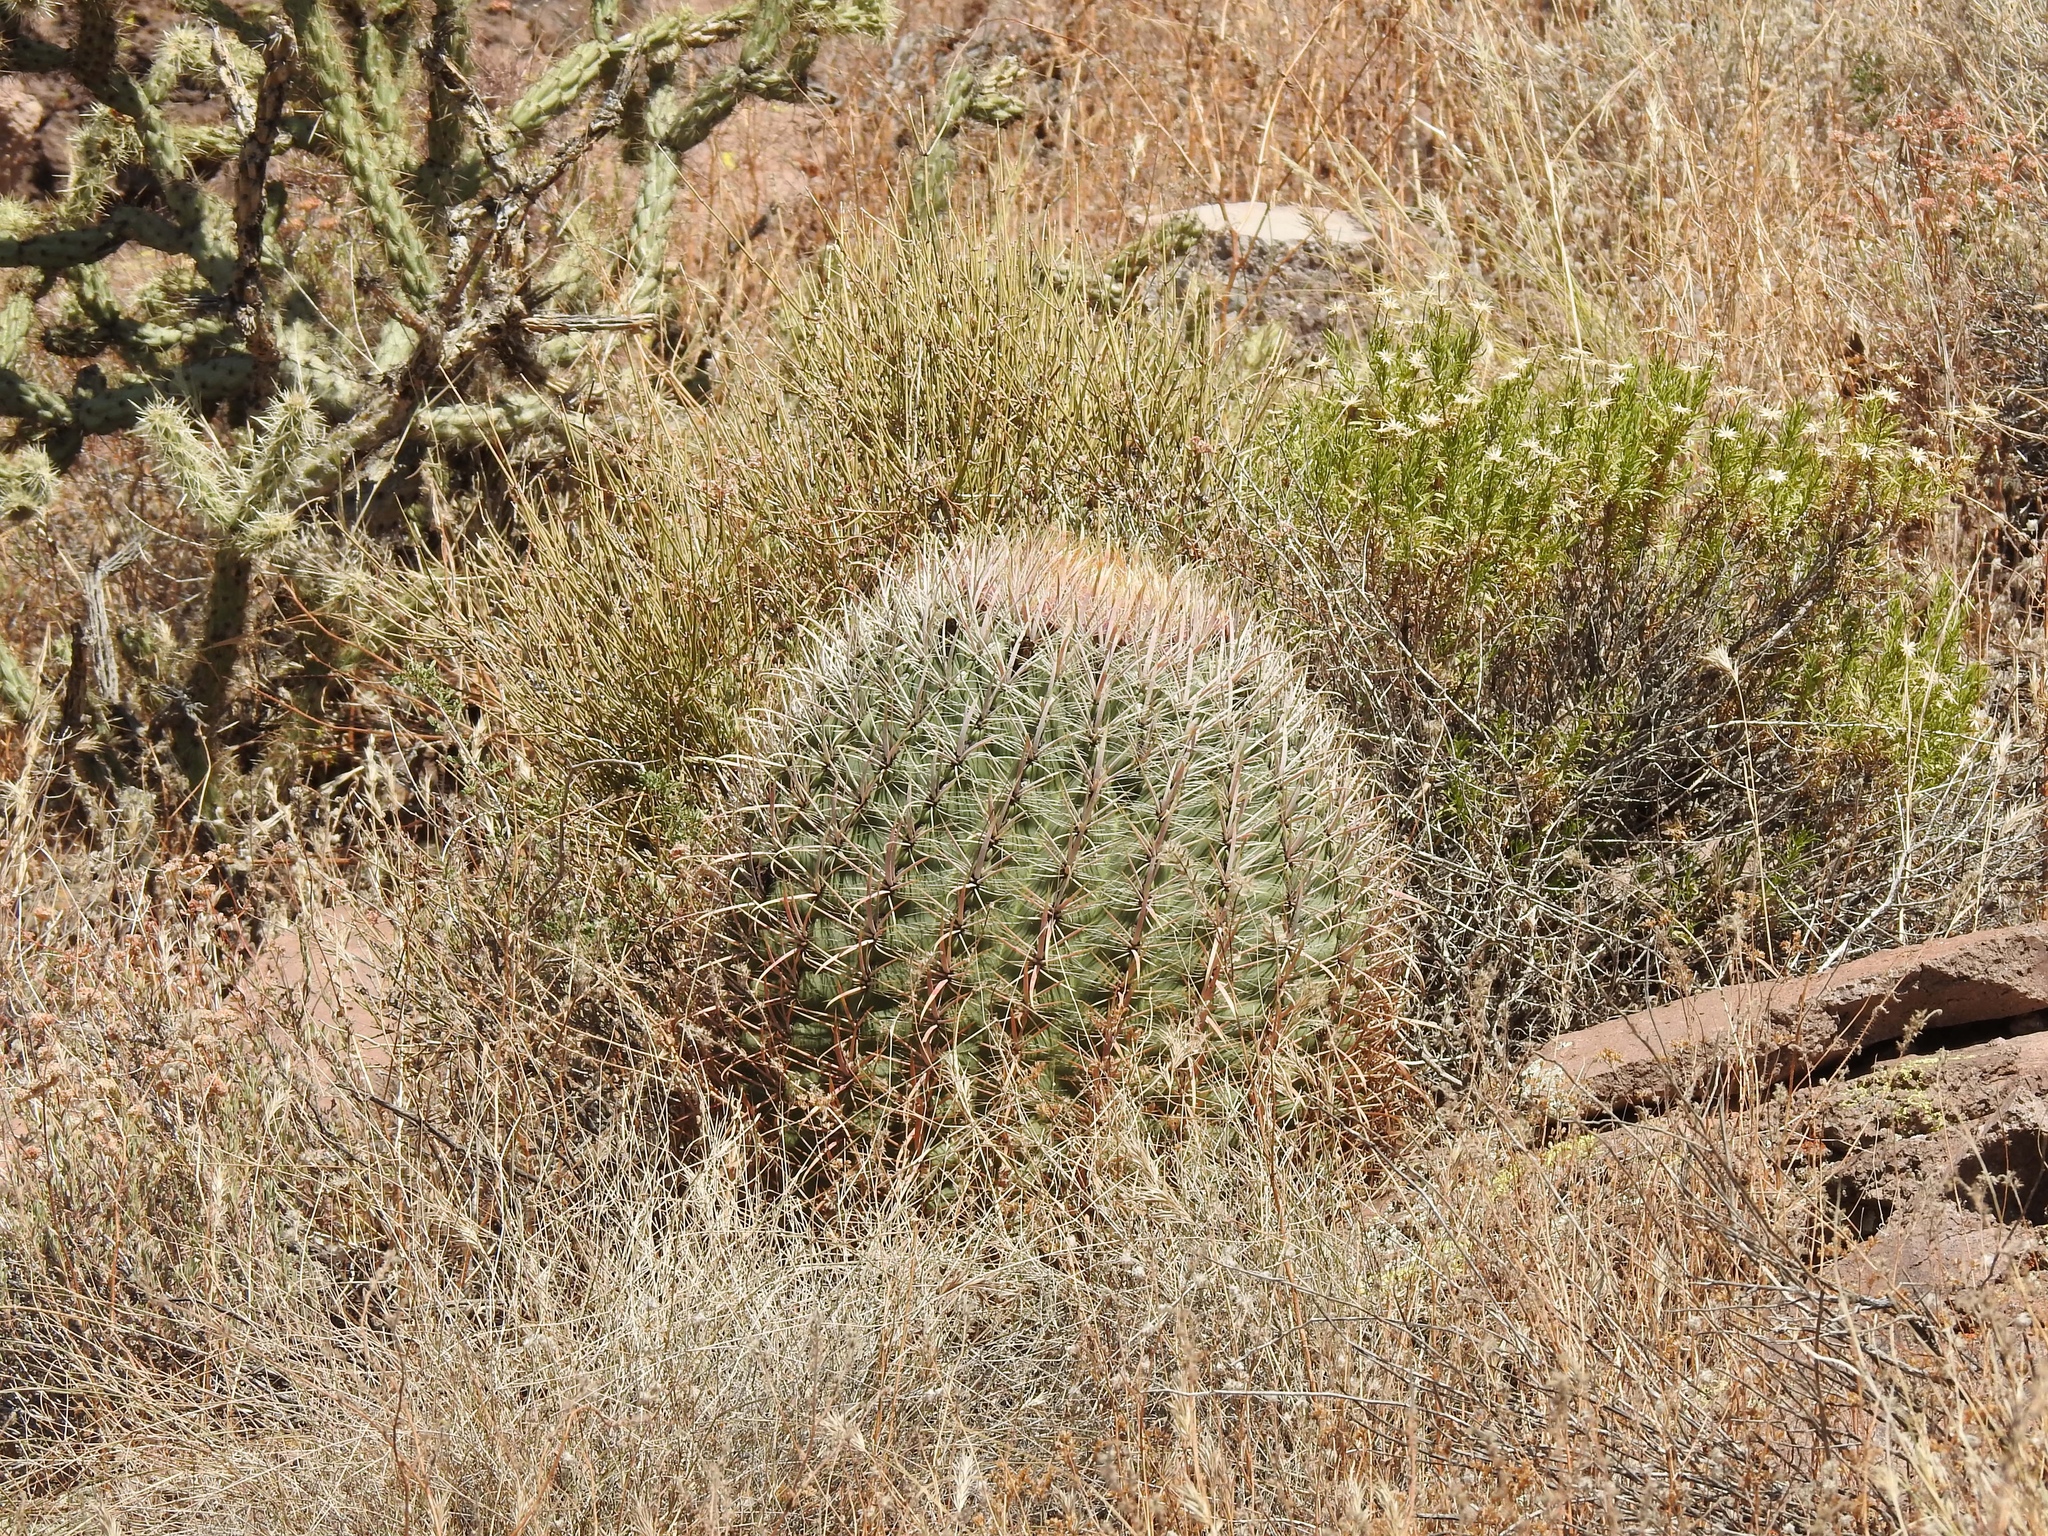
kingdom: Plantae
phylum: Tracheophyta
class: Magnoliopsida
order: Caryophyllales
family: Cactaceae
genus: Ferocactus
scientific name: Ferocactus cylindraceus
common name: California barrel cactus
